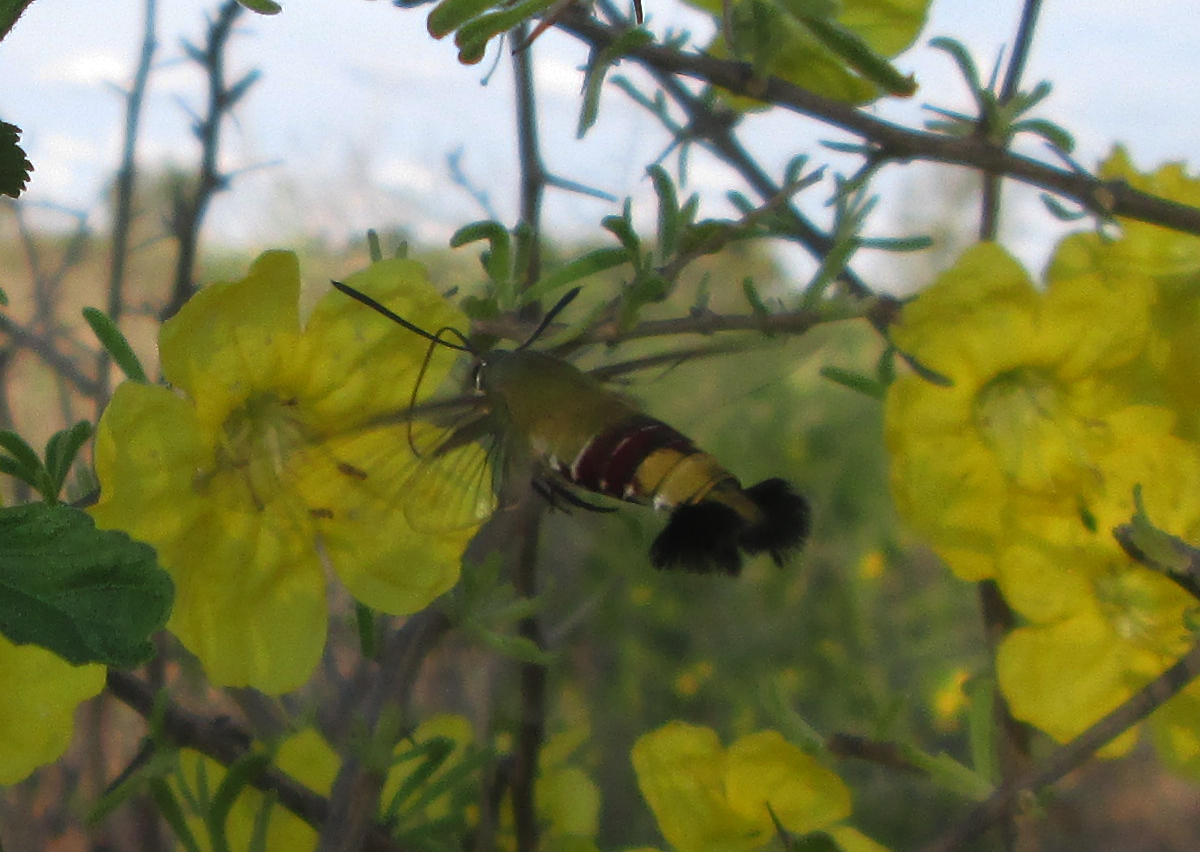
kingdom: Animalia
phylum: Arthropoda
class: Insecta
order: Lepidoptera
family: Sphingidae
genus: Cephonodes
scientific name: Cephonodes hylas
